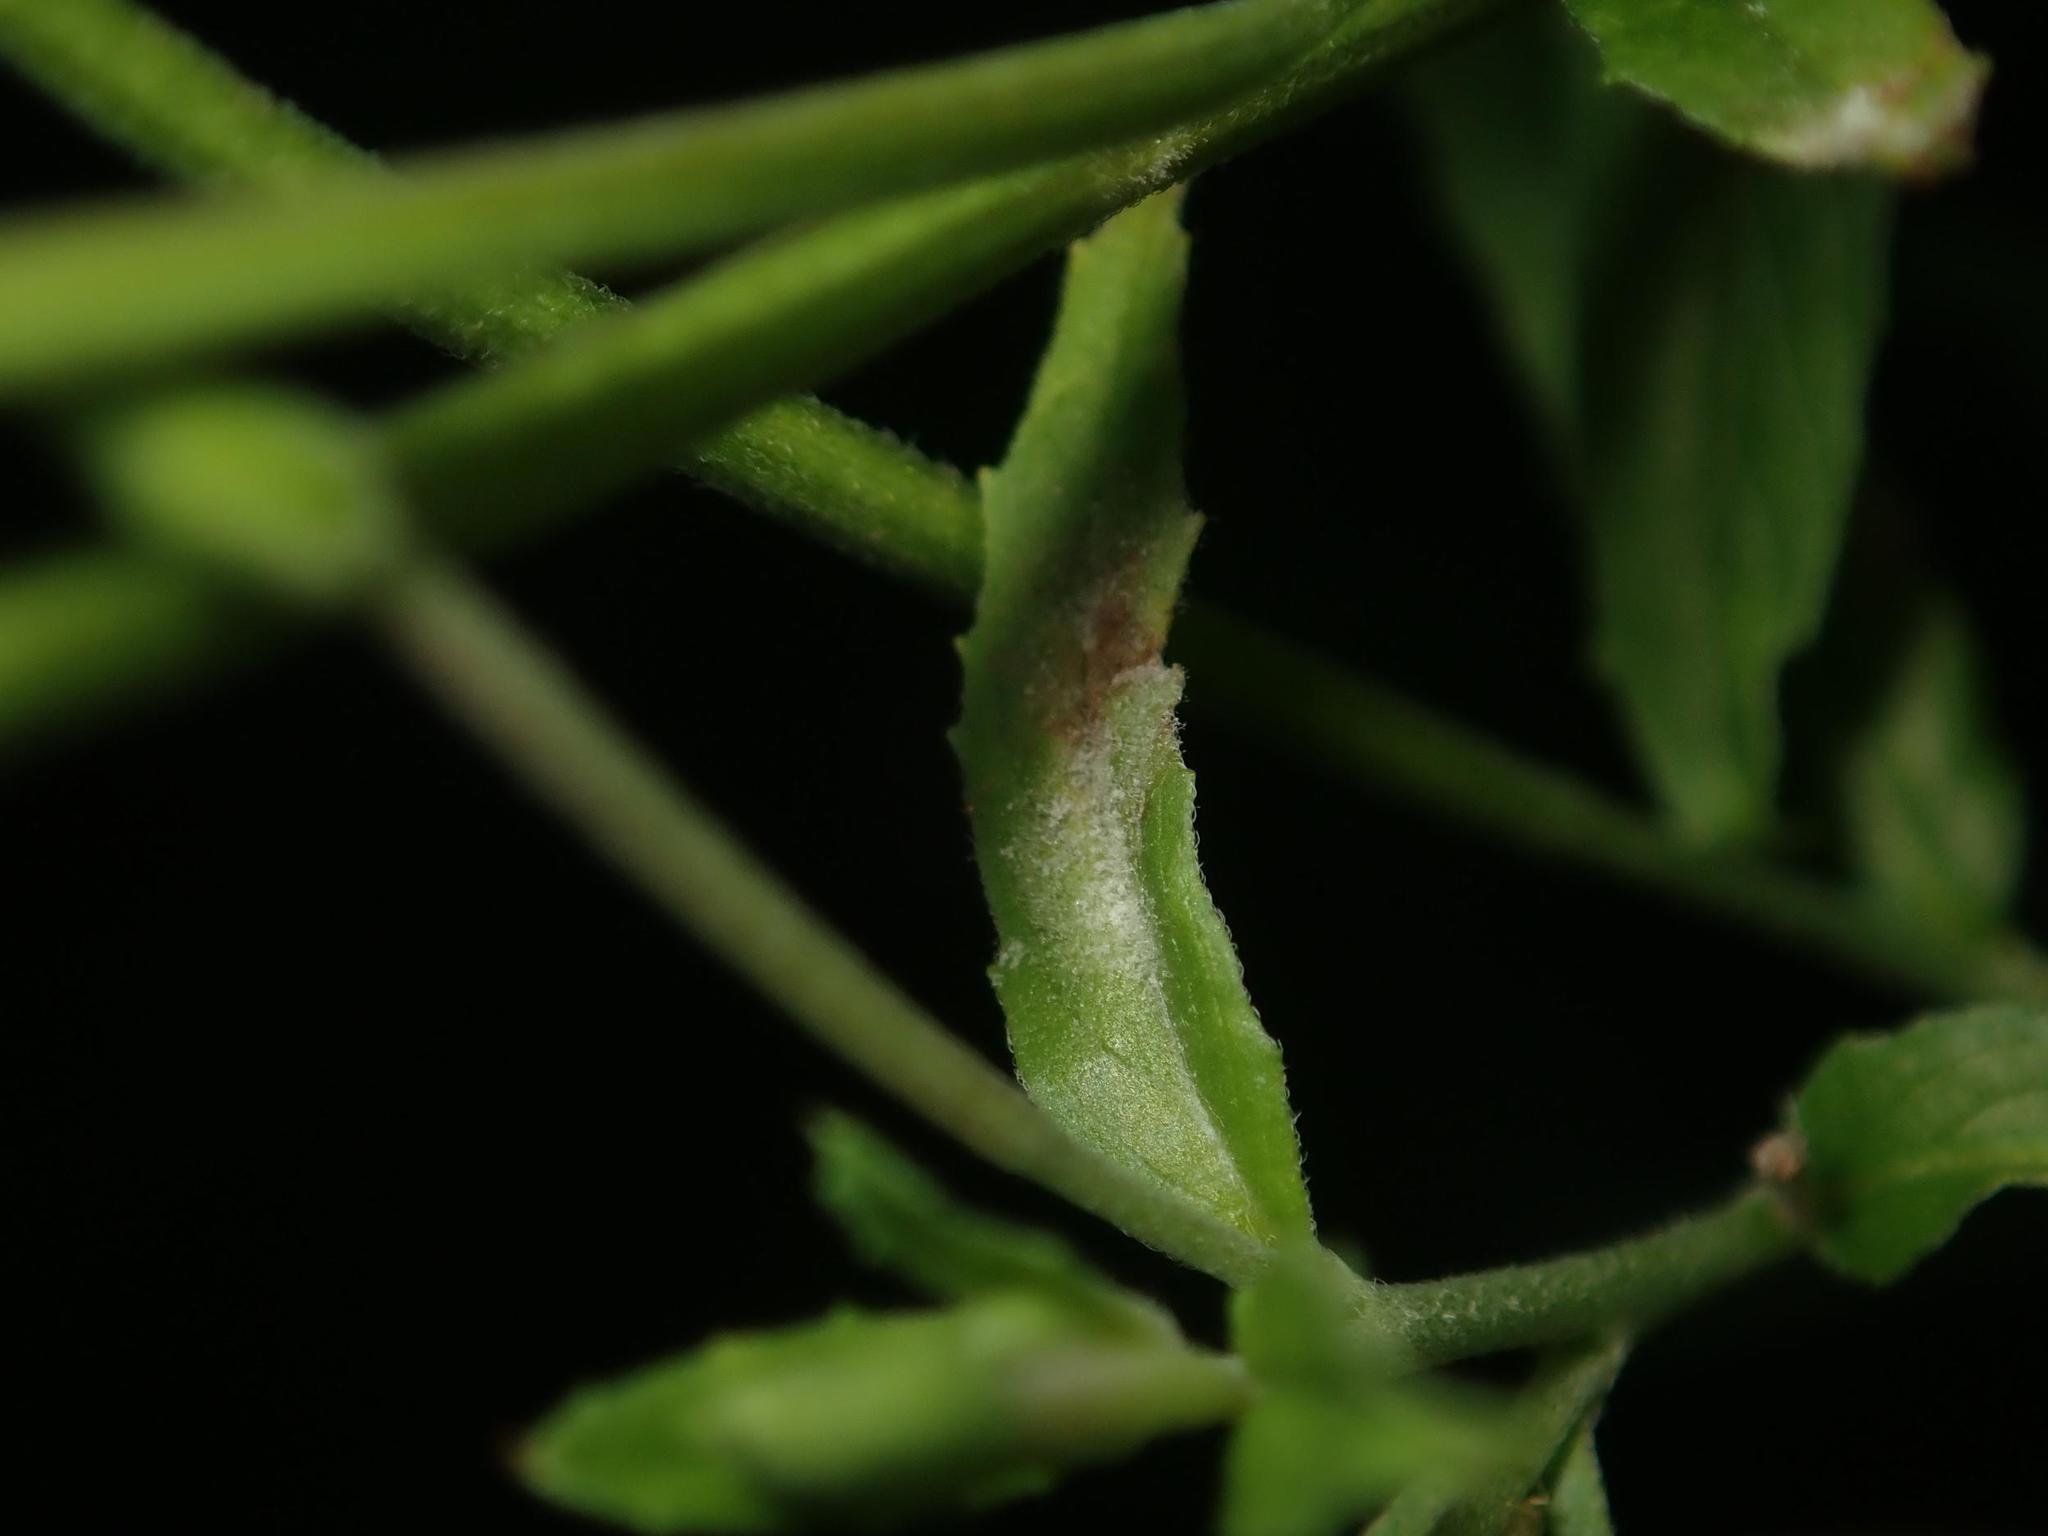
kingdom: Fungi
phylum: Ascomycota
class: Leotiomycetes
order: Helotiales
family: Erysiphaceae
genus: Podosphaera
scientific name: Podosphaera epilobii
